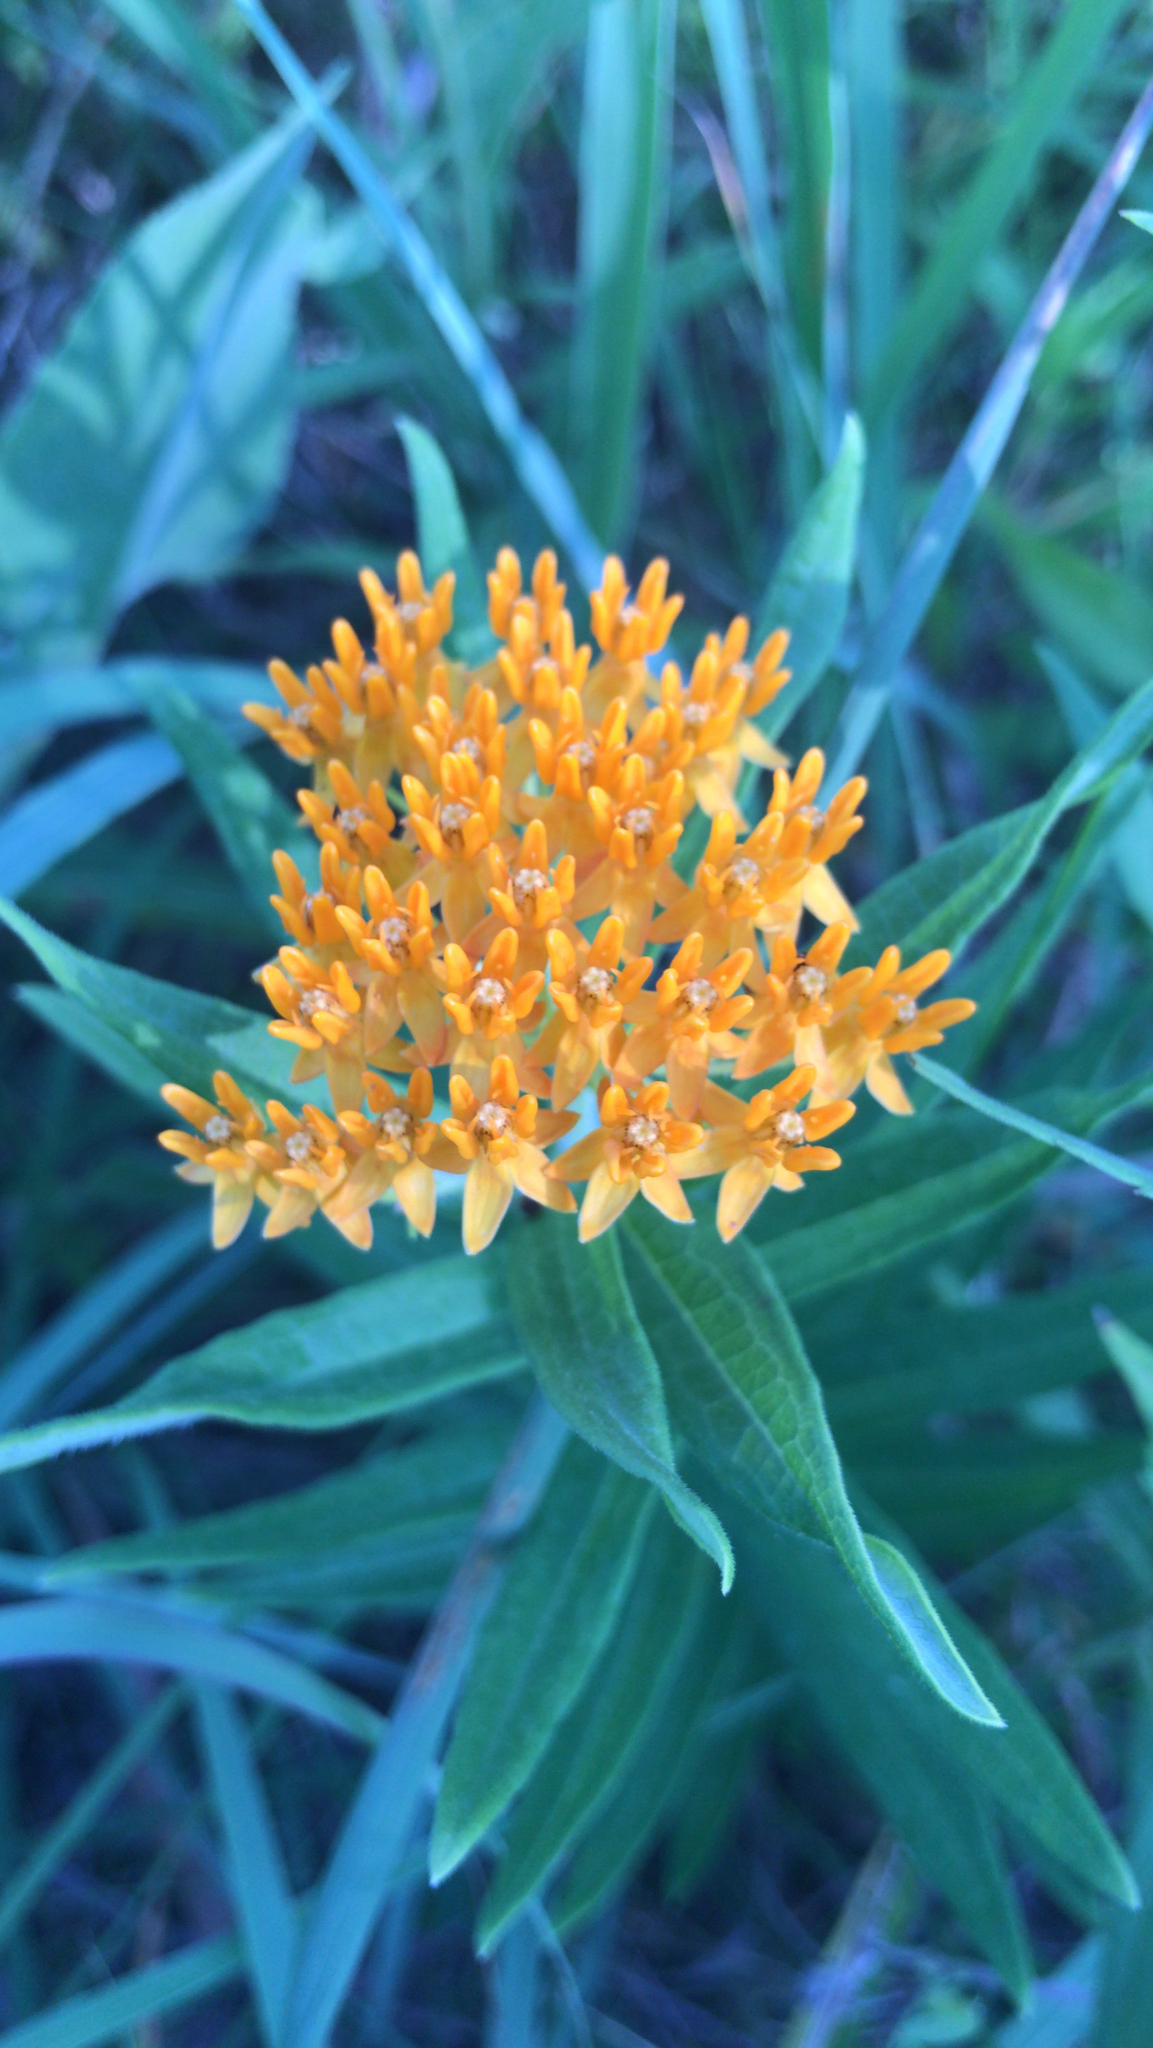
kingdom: Plantae
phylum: Tracheophyta
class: Magnoliopsida
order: Gentianales
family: Apocynaceae
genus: Asclepias
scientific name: Asclepias tuberosa
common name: Butterfly milkweed
